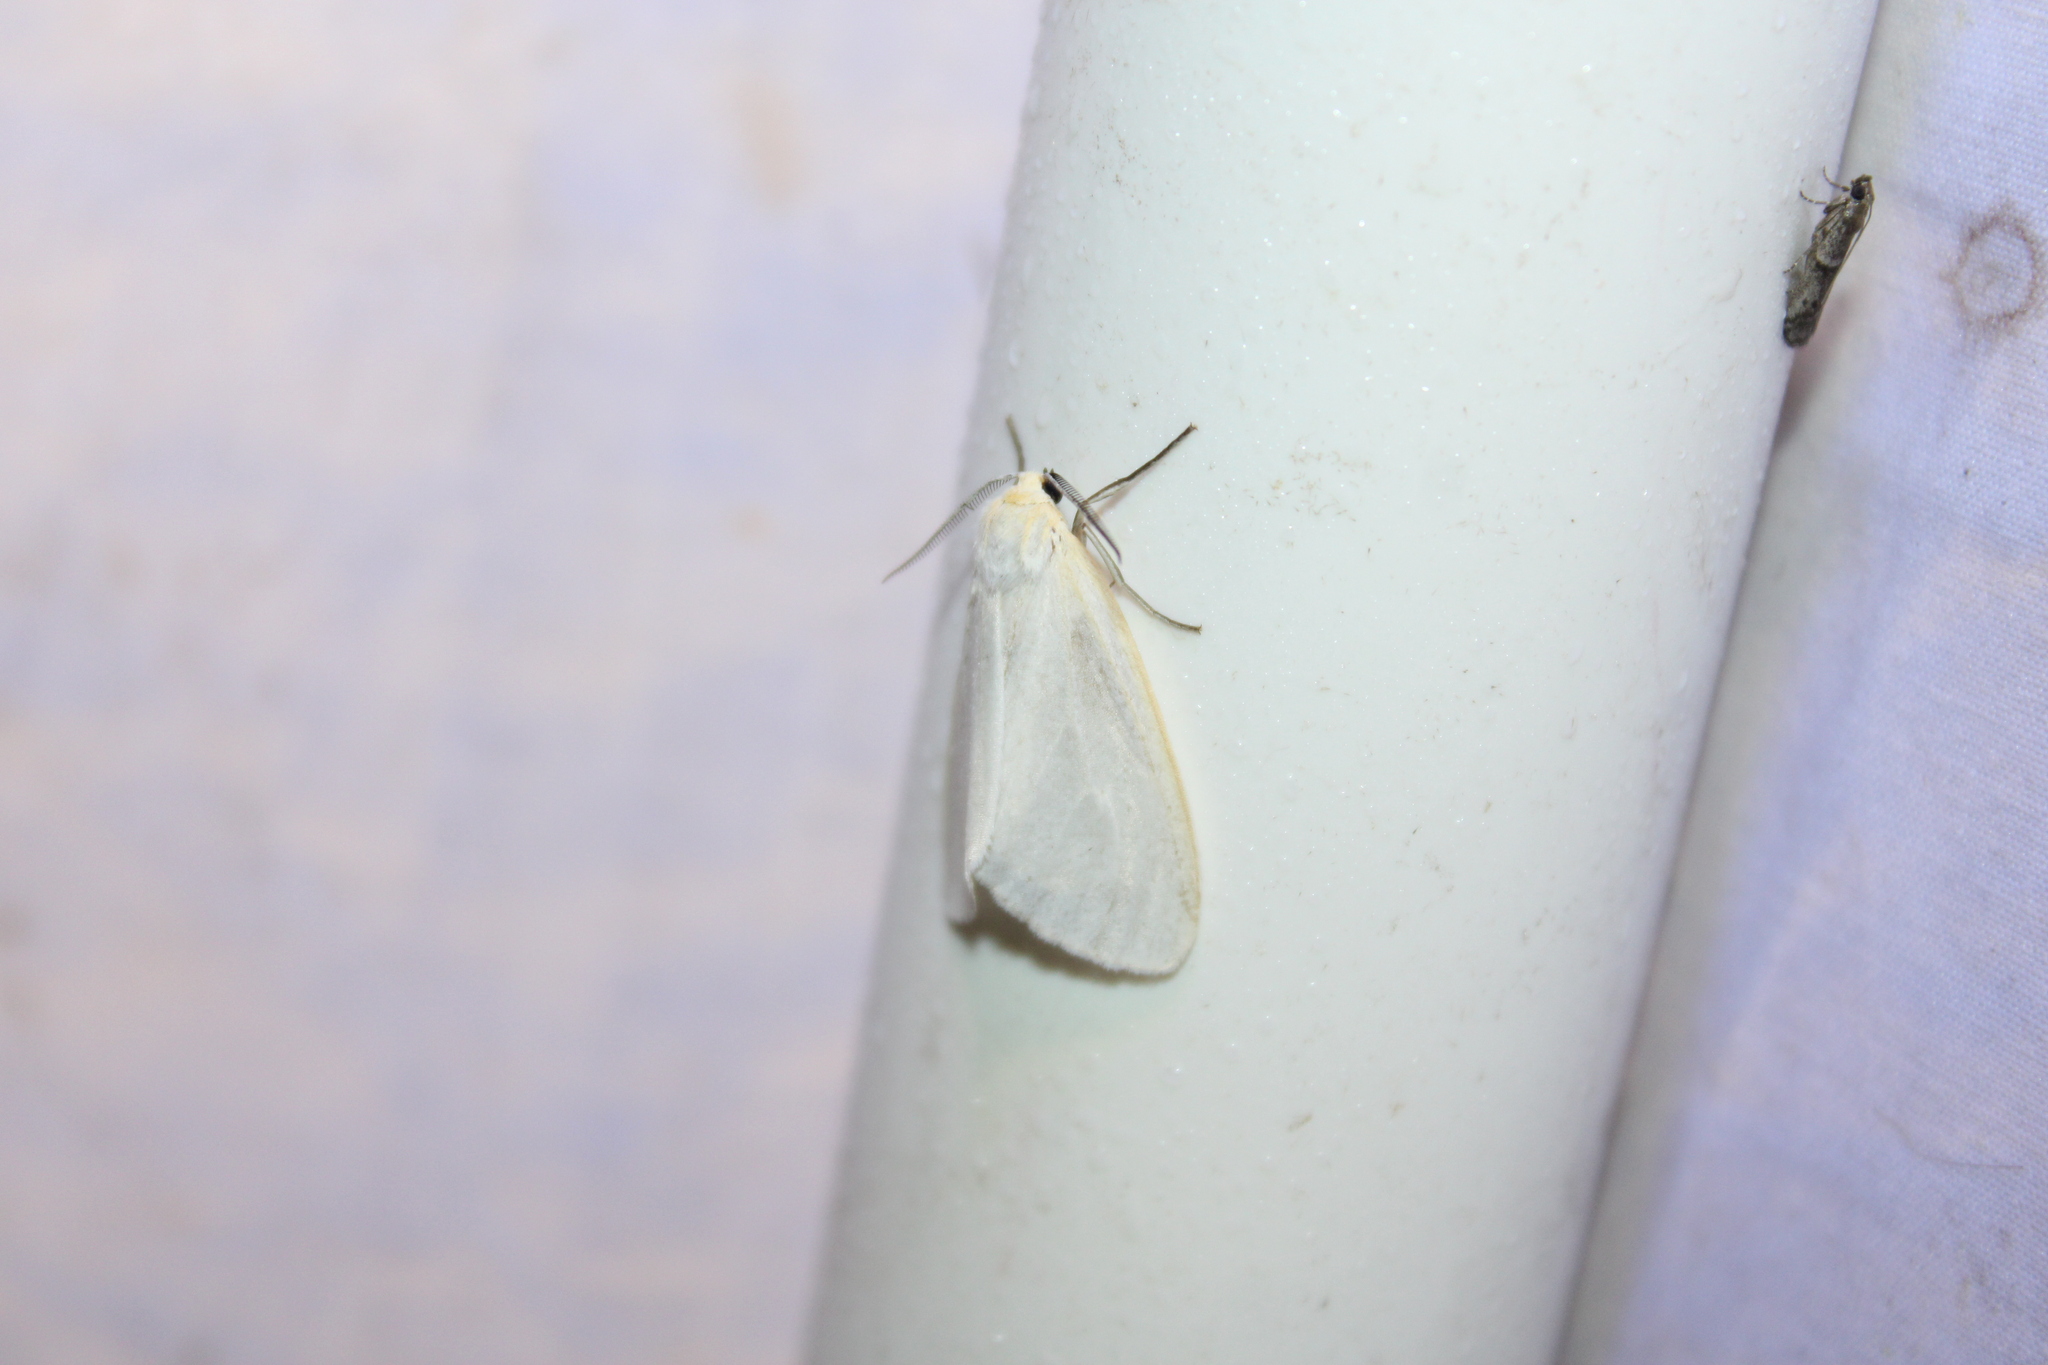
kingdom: Animalia
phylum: Arthropoda
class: Insecta
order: Lepidoptera
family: Erebidae
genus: Cycnia
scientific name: Cycnia tenera
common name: Delicate cycnia moth
